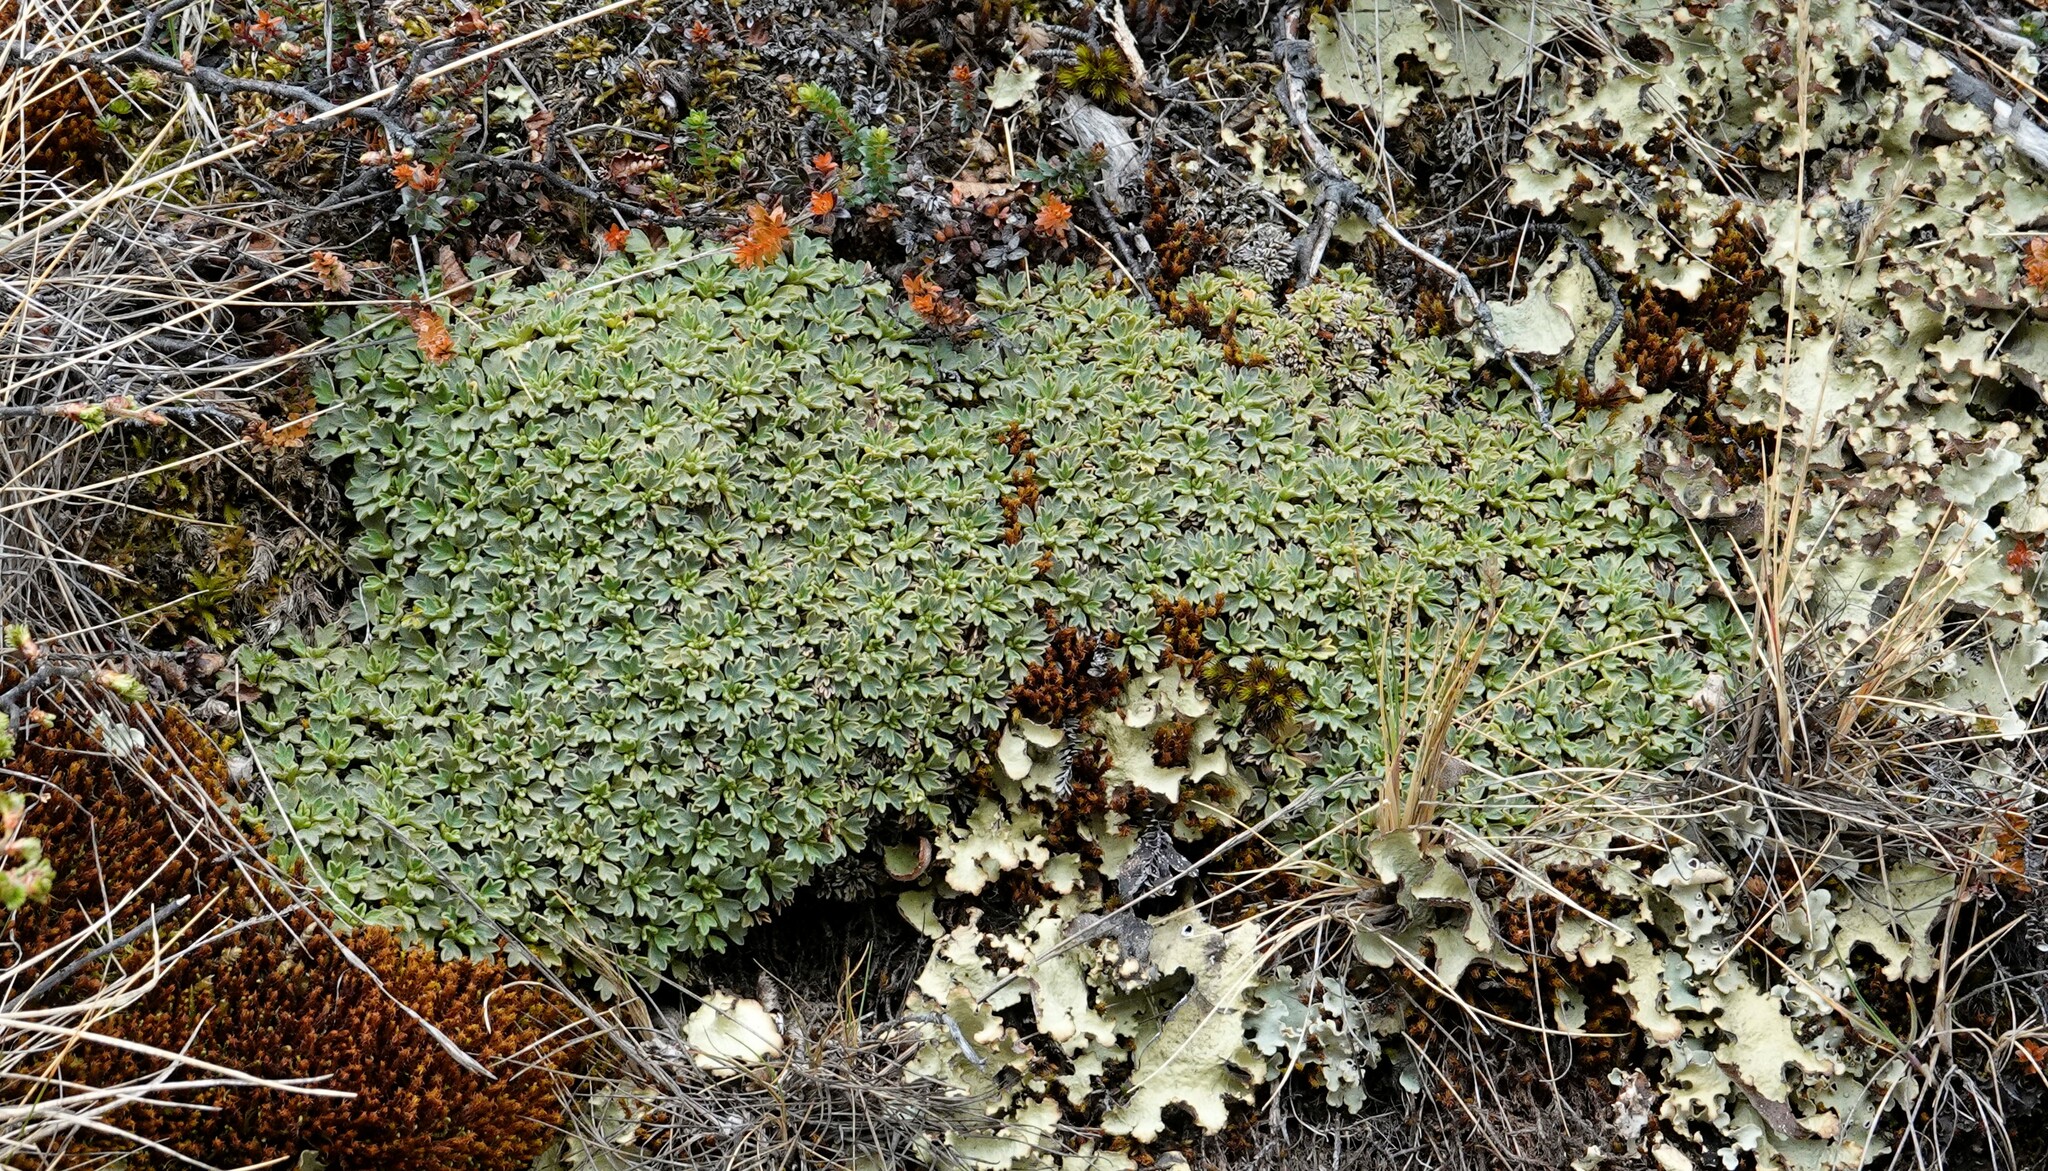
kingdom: Plantae
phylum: Tracheophyta
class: Magnoliopsida
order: Apiales
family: Apiaceae
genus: Bolax
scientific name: Bolax gummifera
